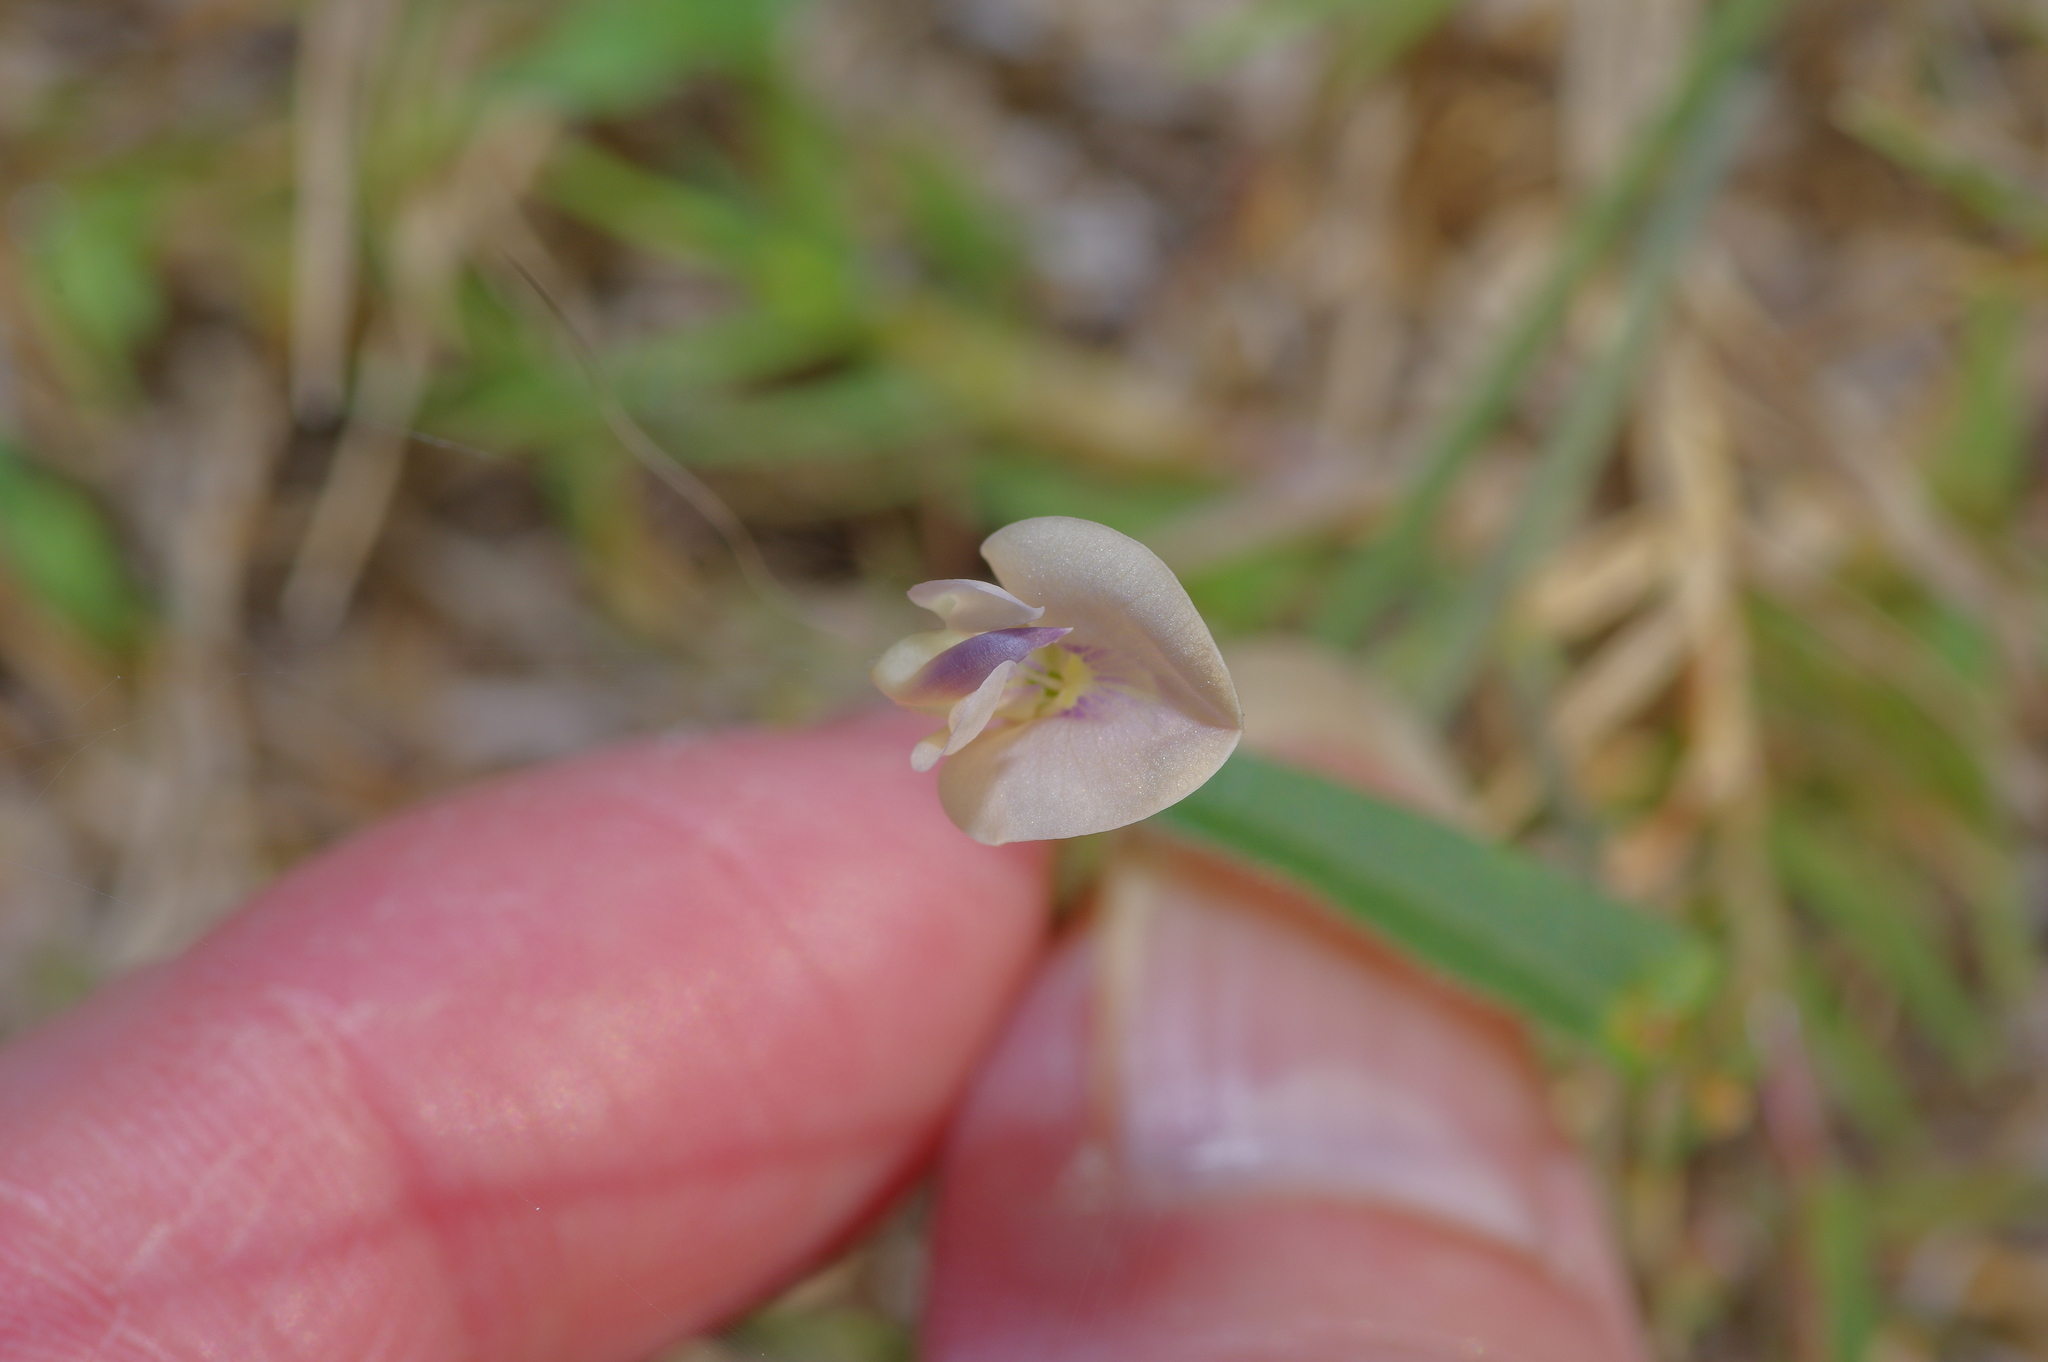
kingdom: Plantae
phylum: Tracheophyta
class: Magnoliopsida
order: Fabales
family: Fabaceae
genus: Strophostyles
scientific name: Strophostyles leiosperma
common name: Smooth-seed wild bean
